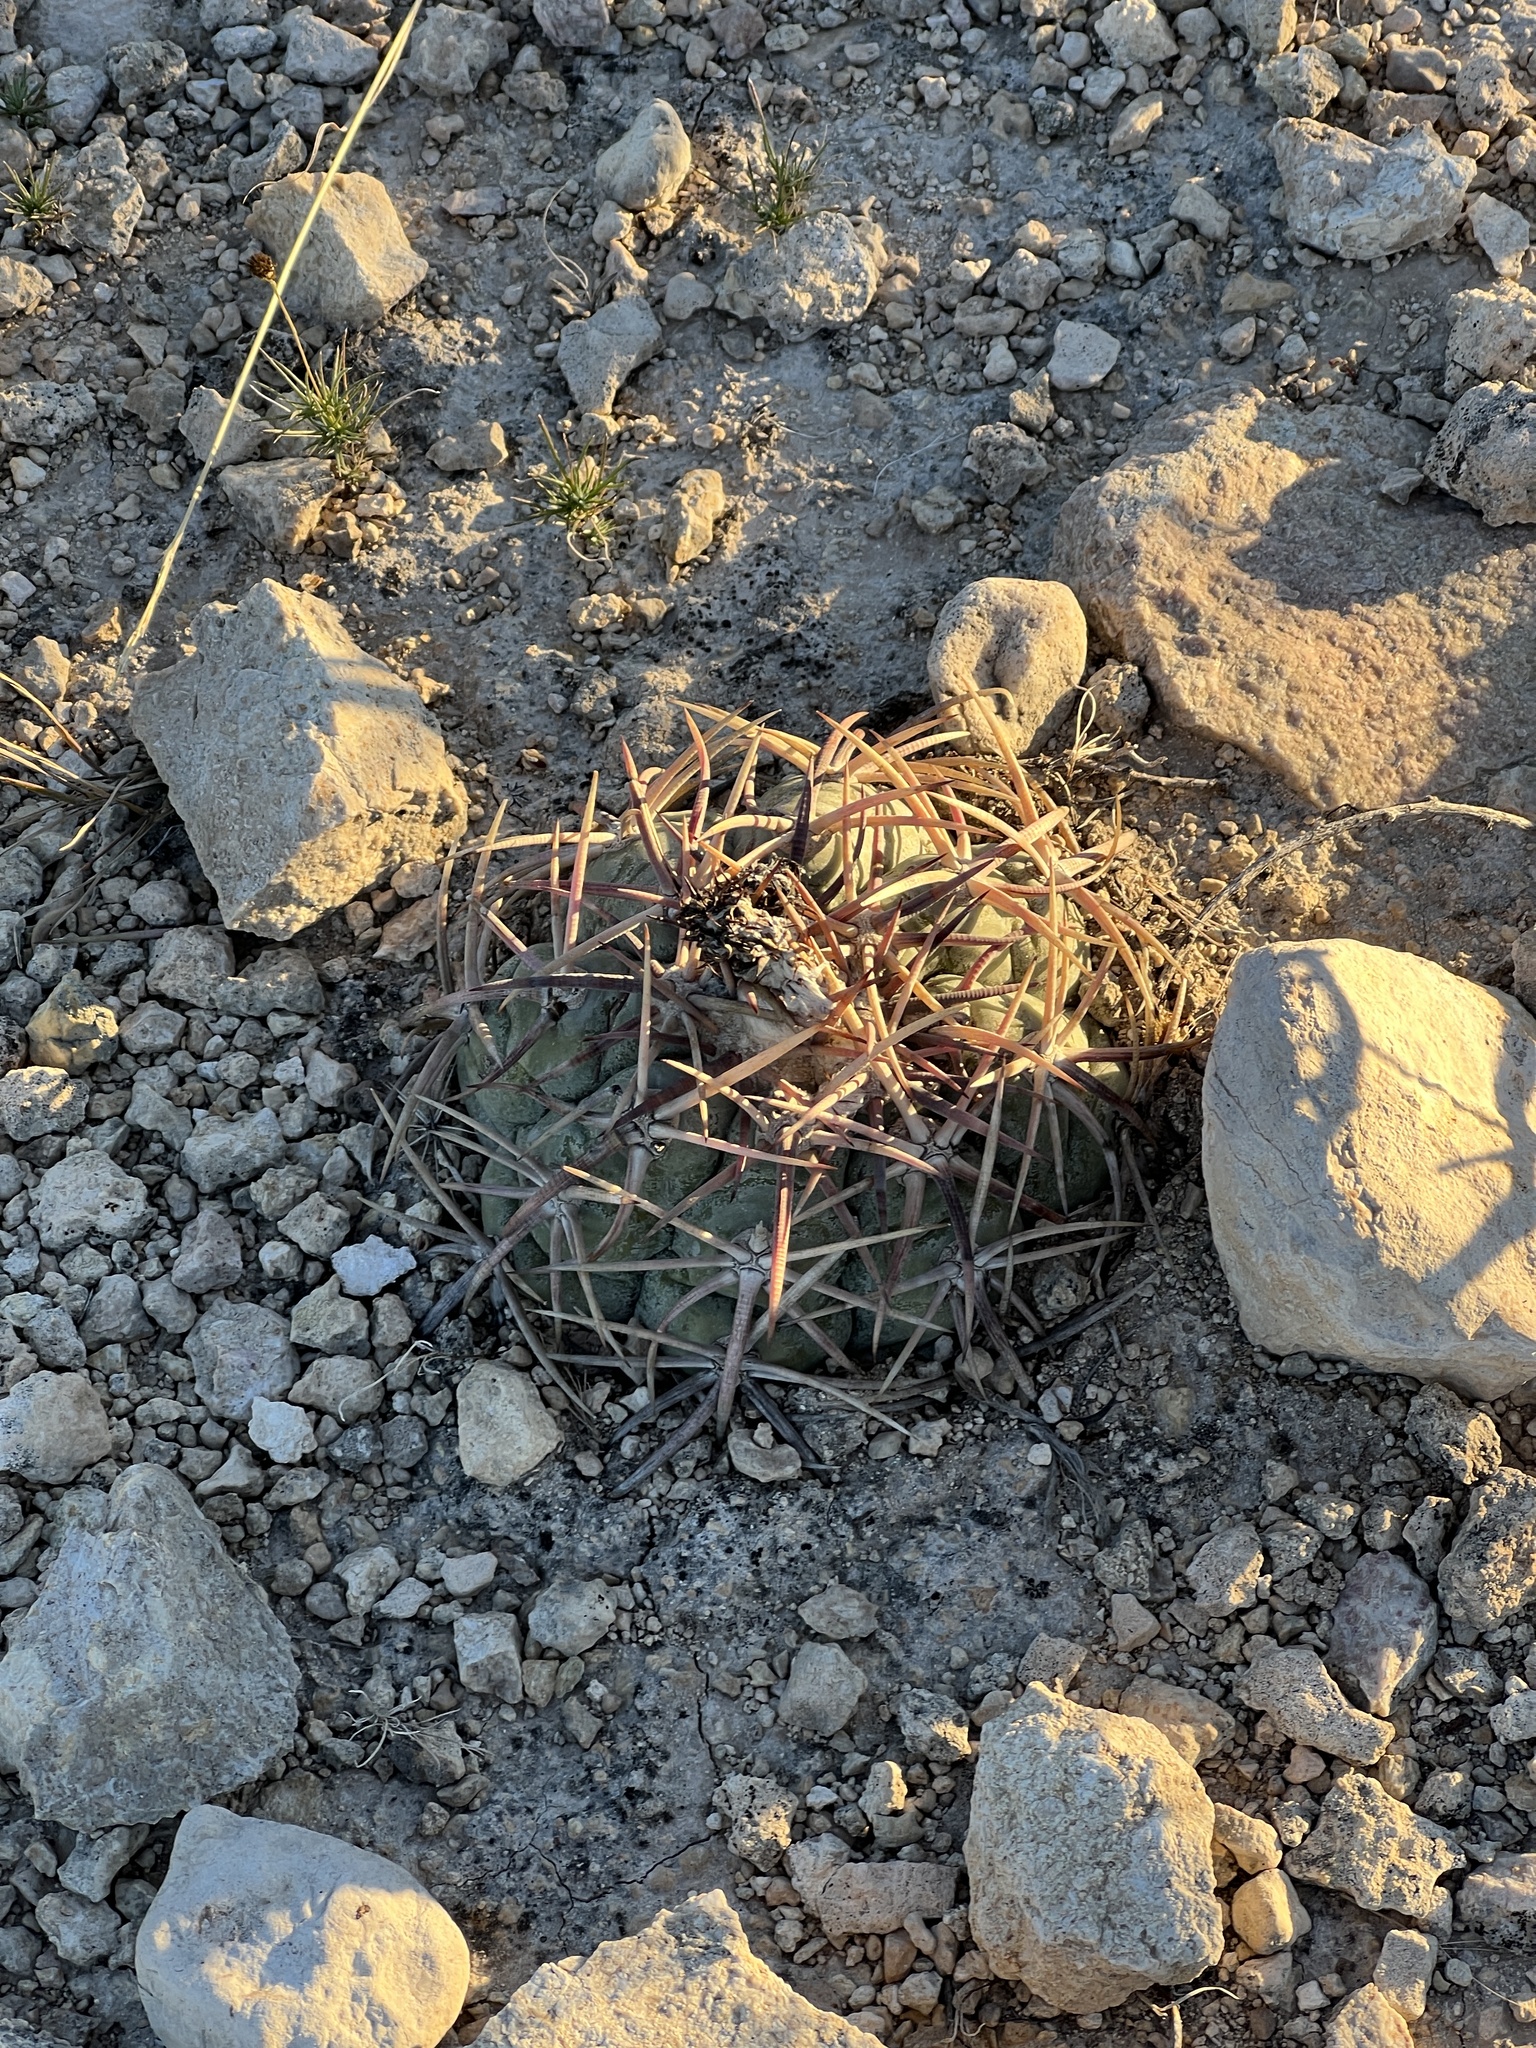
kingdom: Plantae
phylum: Tracheophyta
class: Magnoliopsida
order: Caryophyllales
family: Cactaceae
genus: Echinocactus
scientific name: Echinocactus horizonthalonius
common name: Devilshead
